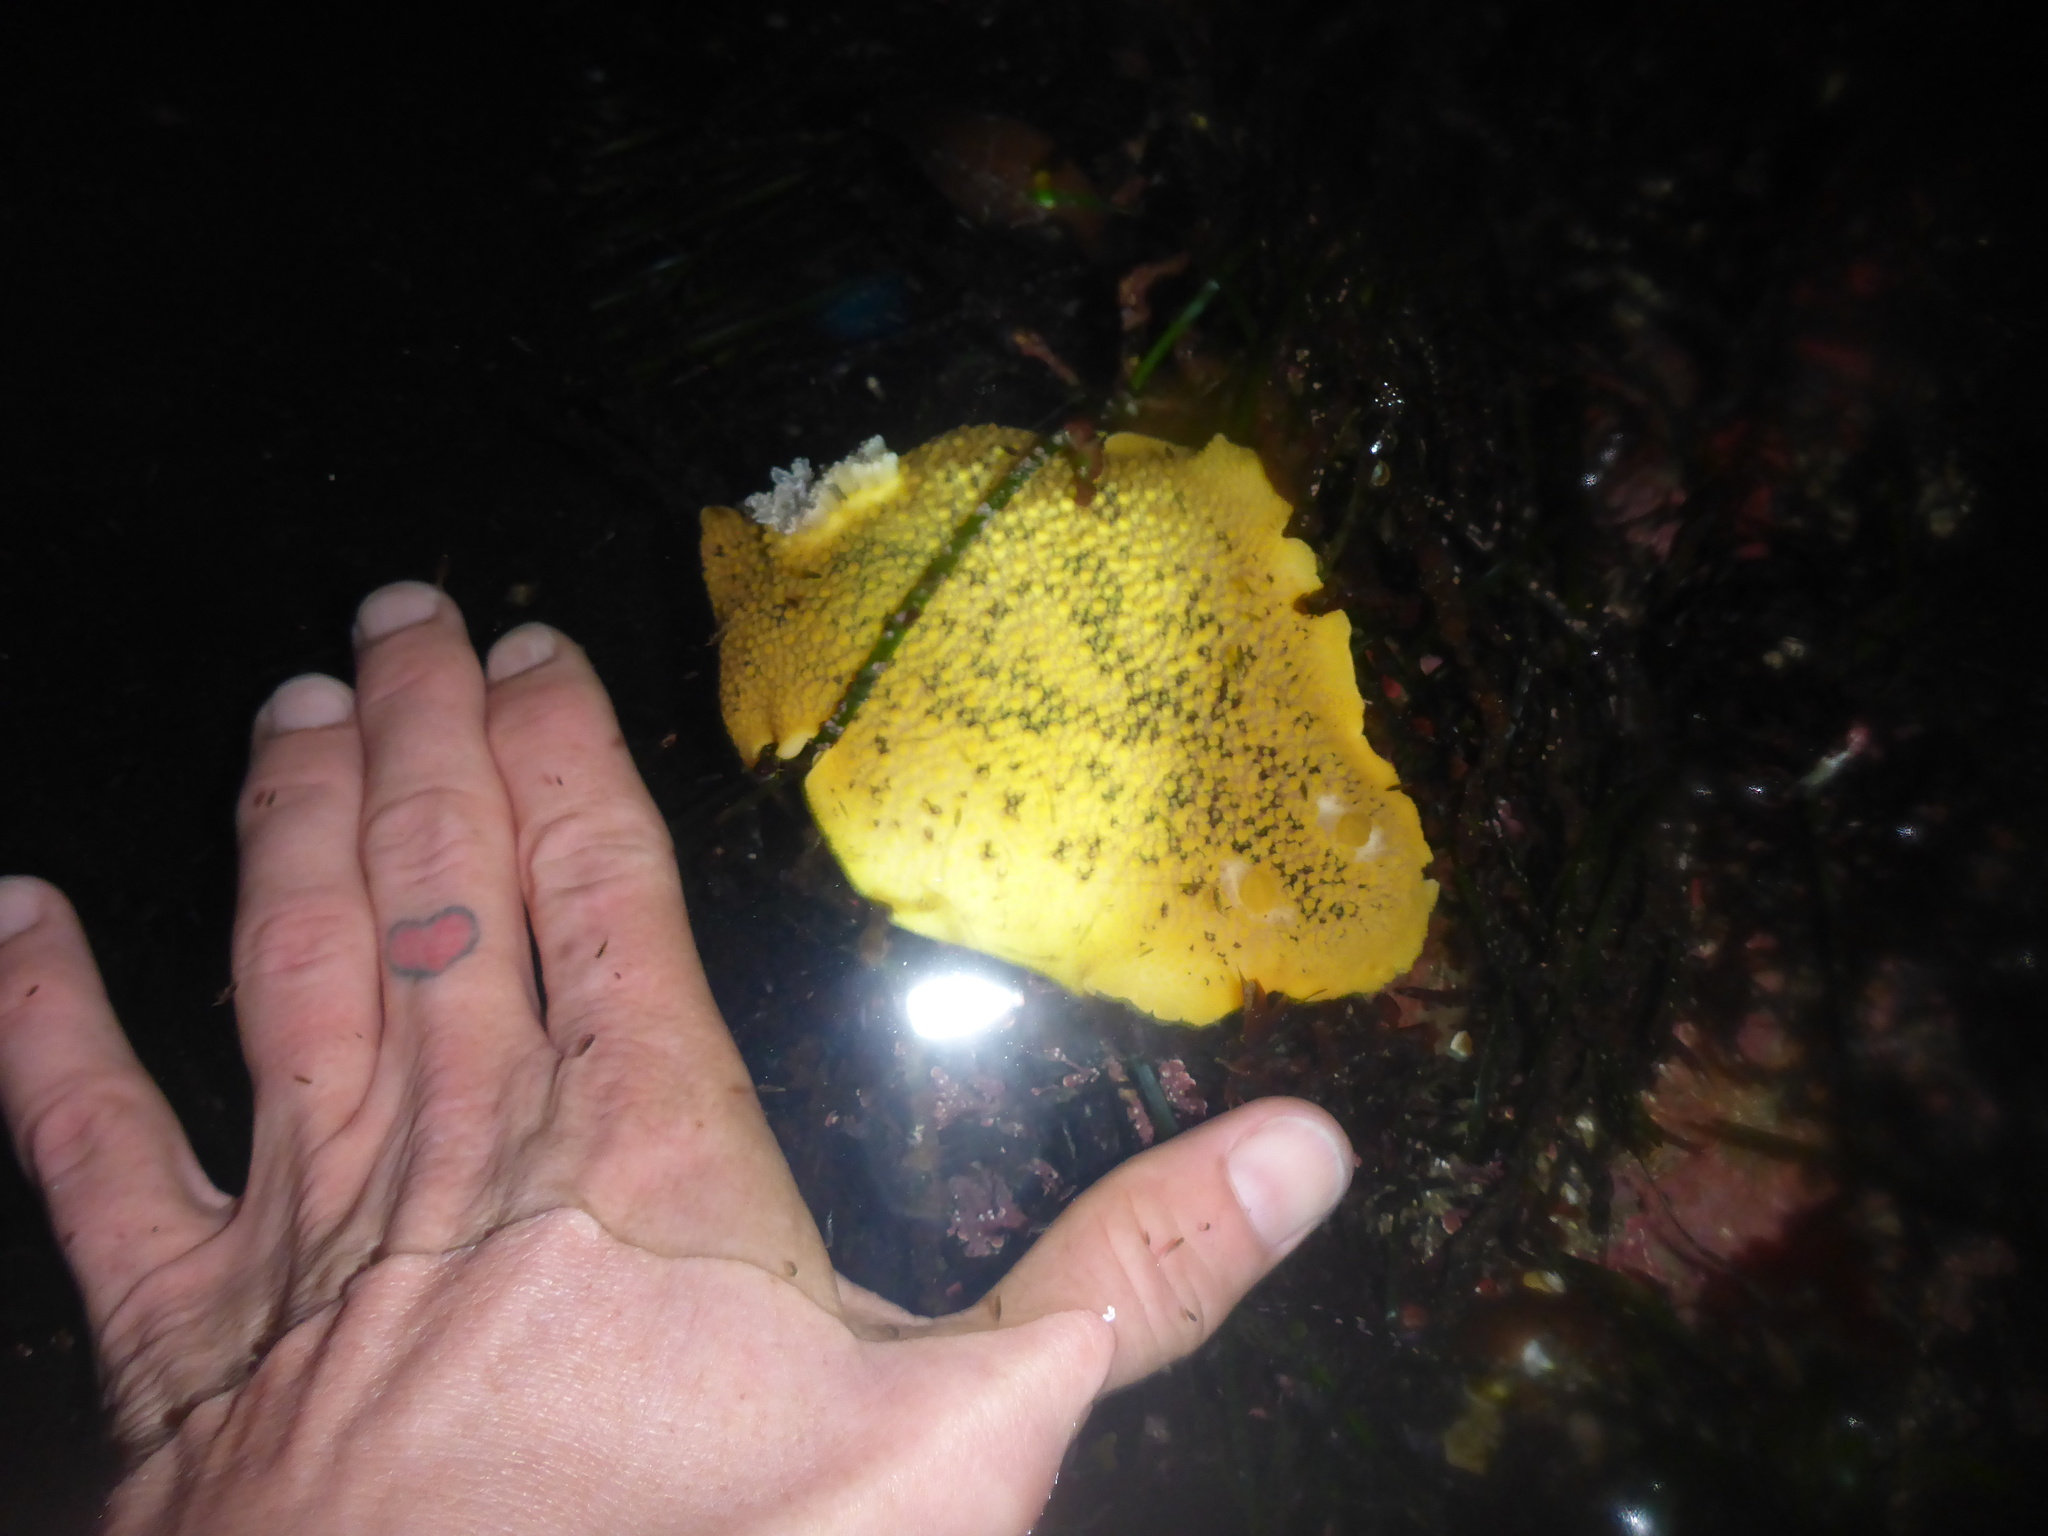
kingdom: Animalia
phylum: Mollusca
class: Gastropoda
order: Nudibranchia
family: Discodorididae
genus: Peltodoris
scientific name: Peltodoris nobilis
